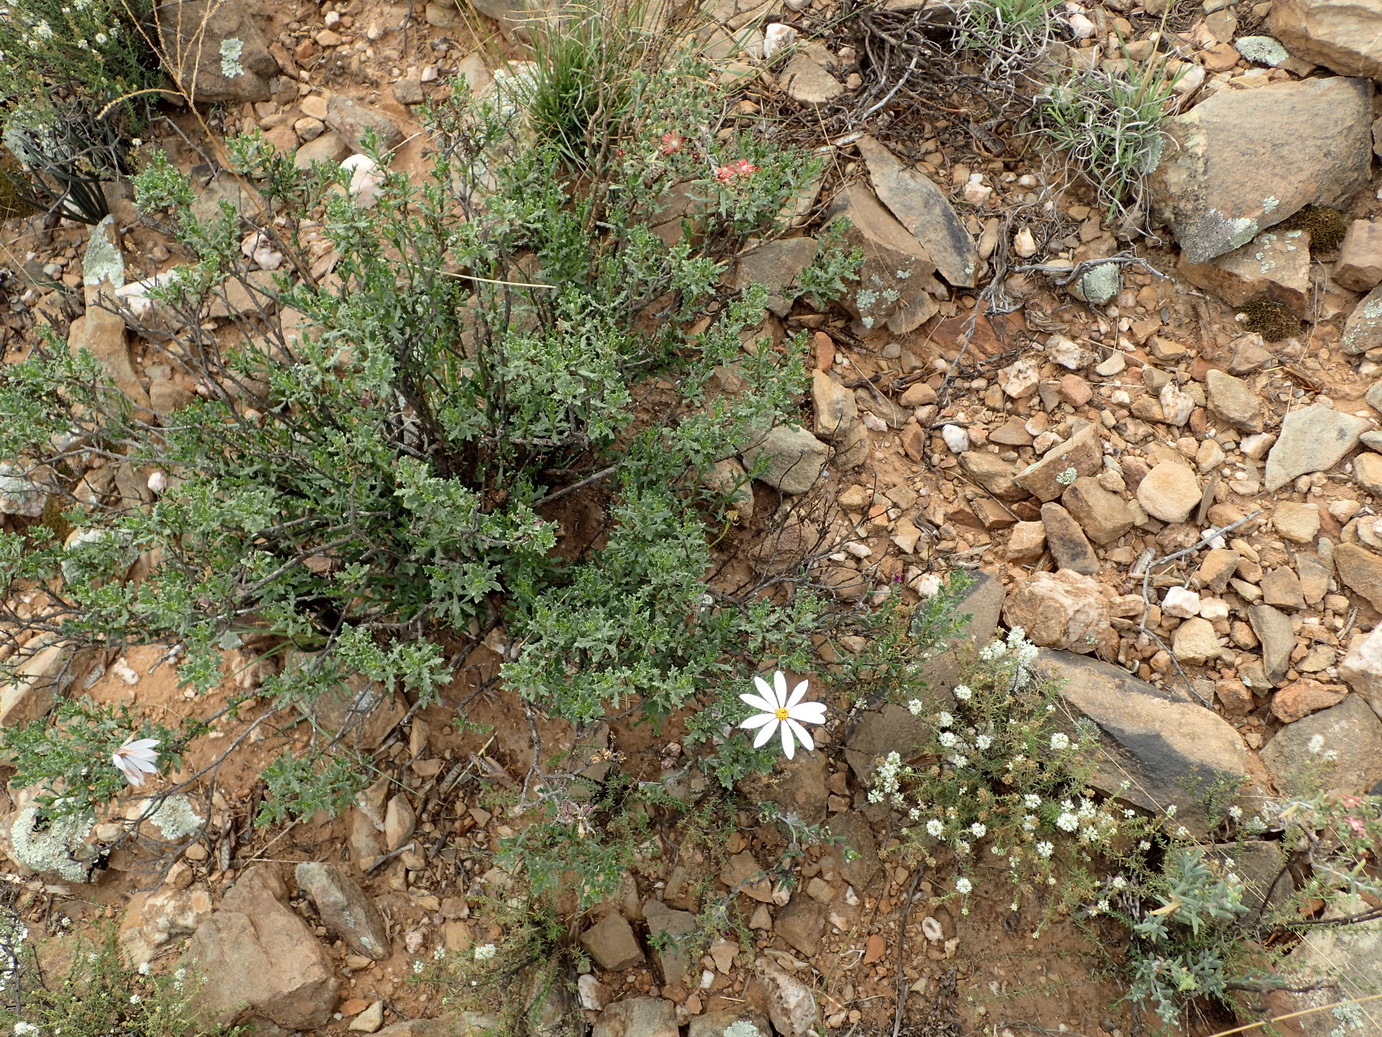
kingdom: Plantae
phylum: Tracheophyta
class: Magnoliopsida
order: Asterales
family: Asteraceae
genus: Dimorphotheca
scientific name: Dimorphotheca cuneata
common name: Daisy
